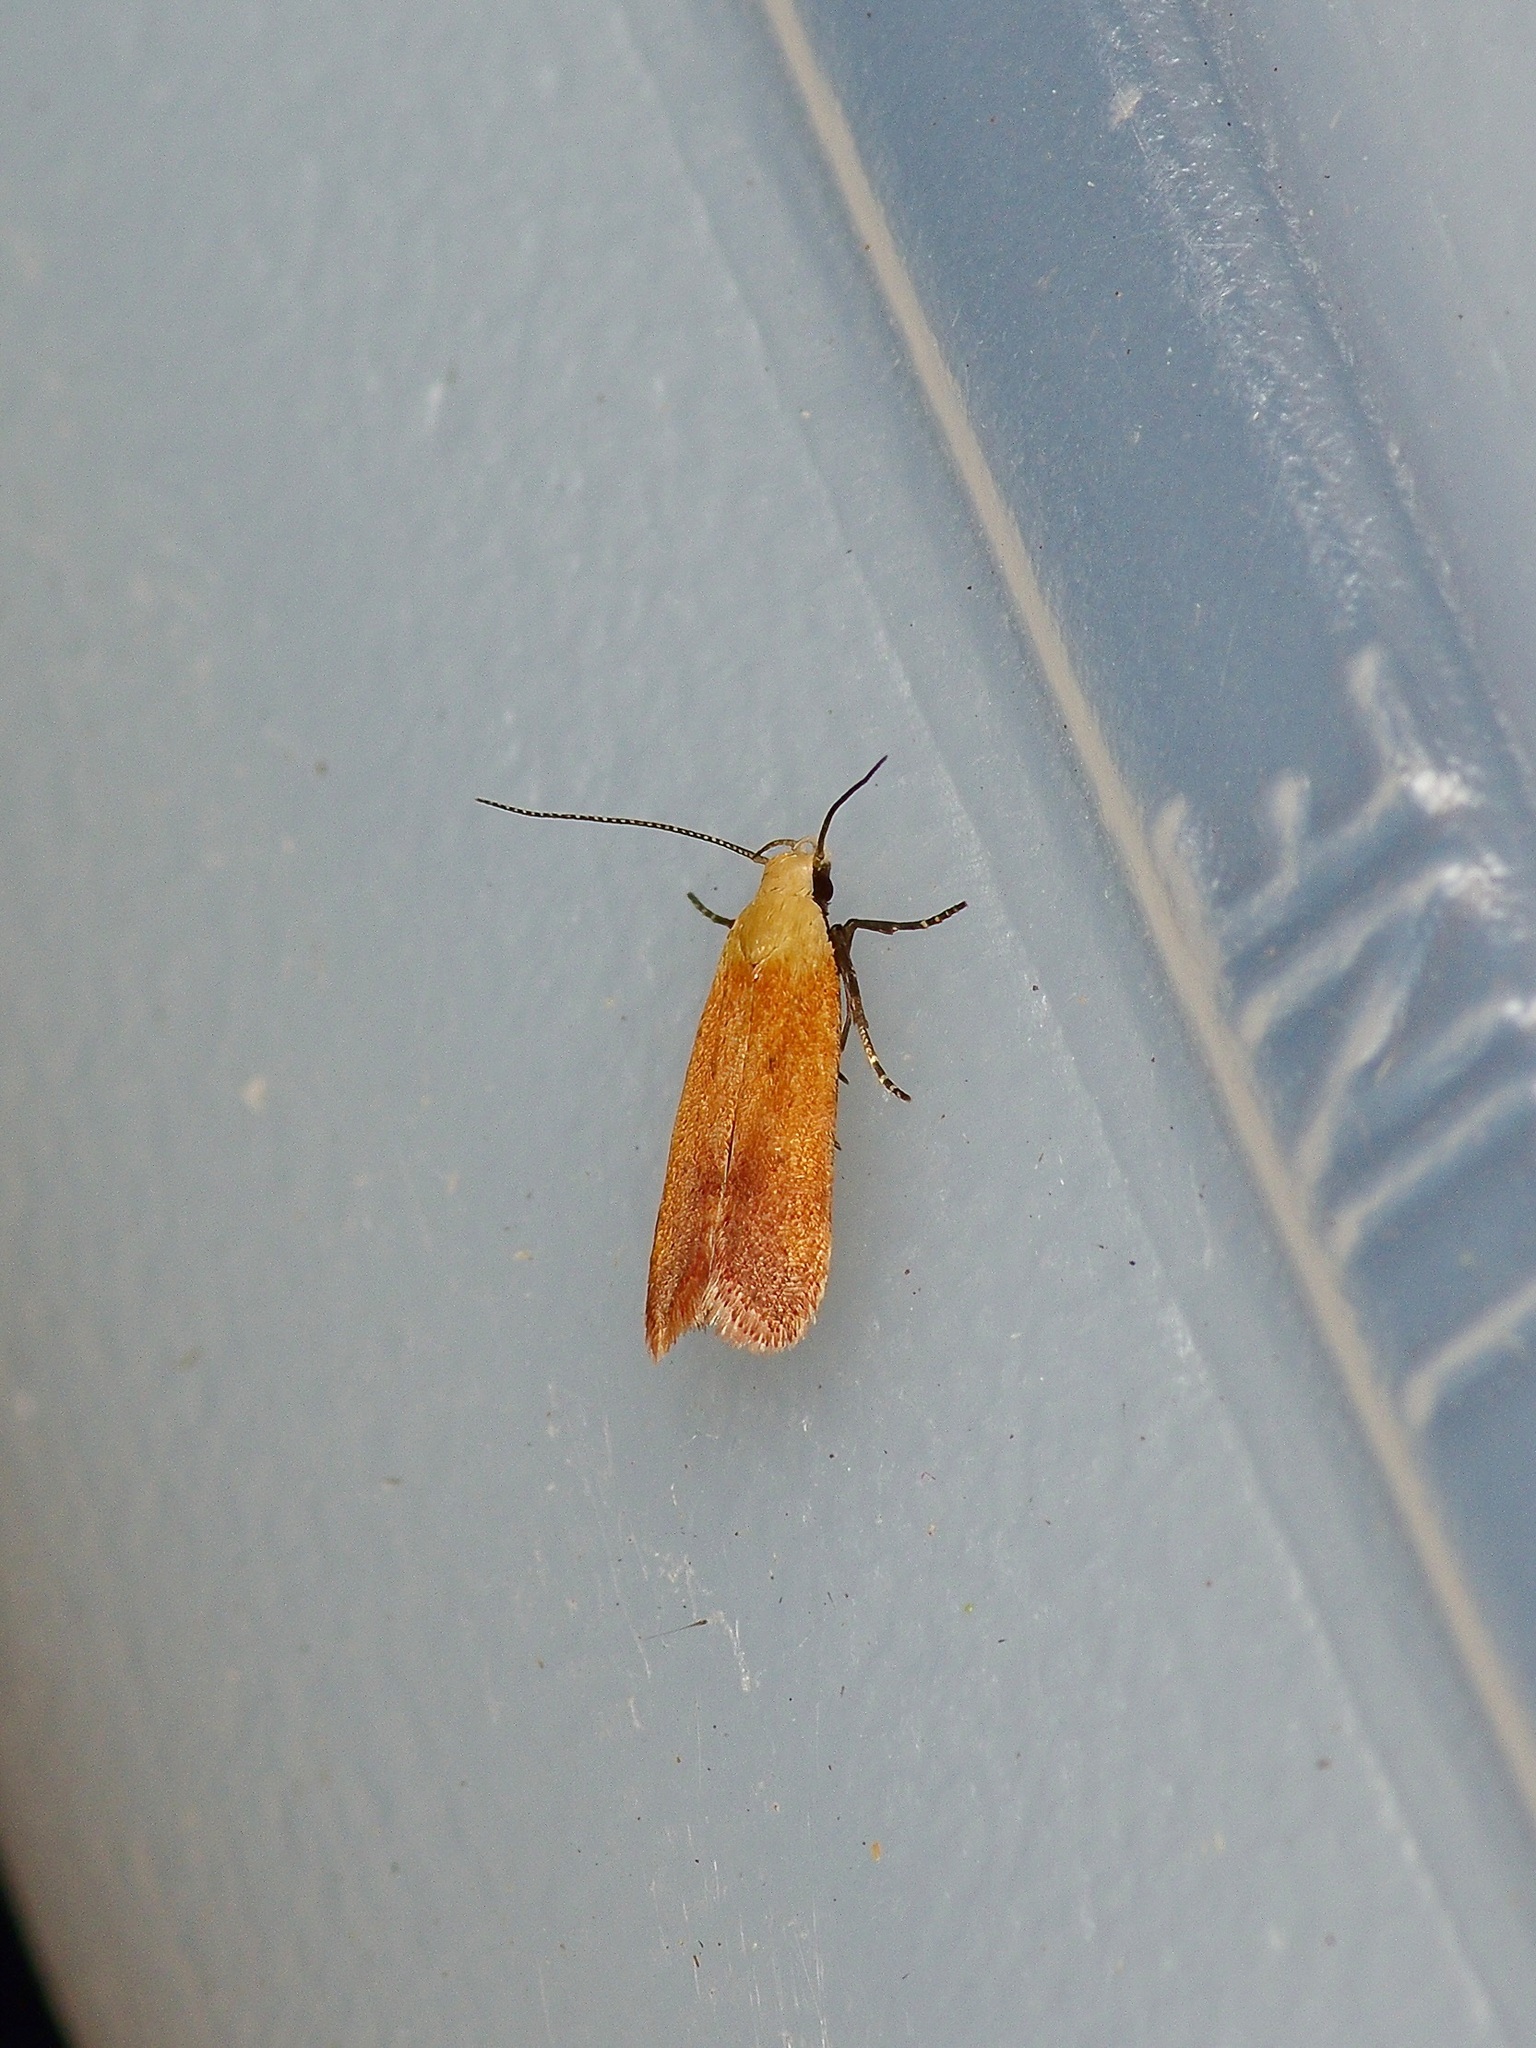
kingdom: Animalia
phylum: Arthropoda
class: Insecta
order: Lepidoptera
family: Gelechiidae
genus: Anacampsis
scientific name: Anacampsis fullonella
